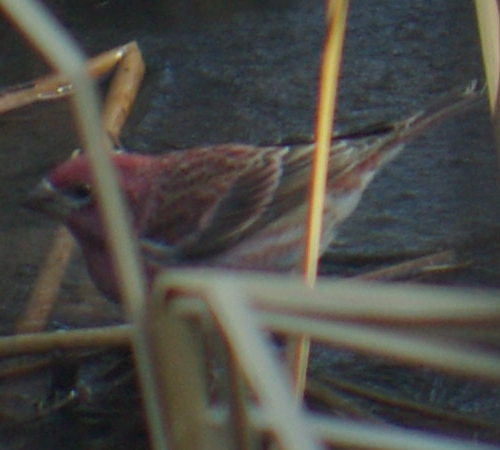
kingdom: Animalia
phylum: Chordata
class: Aves
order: Passeriformes
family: Fringillidae
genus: Haemorhous
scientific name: Haemorhous purpureus
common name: Purple finch
